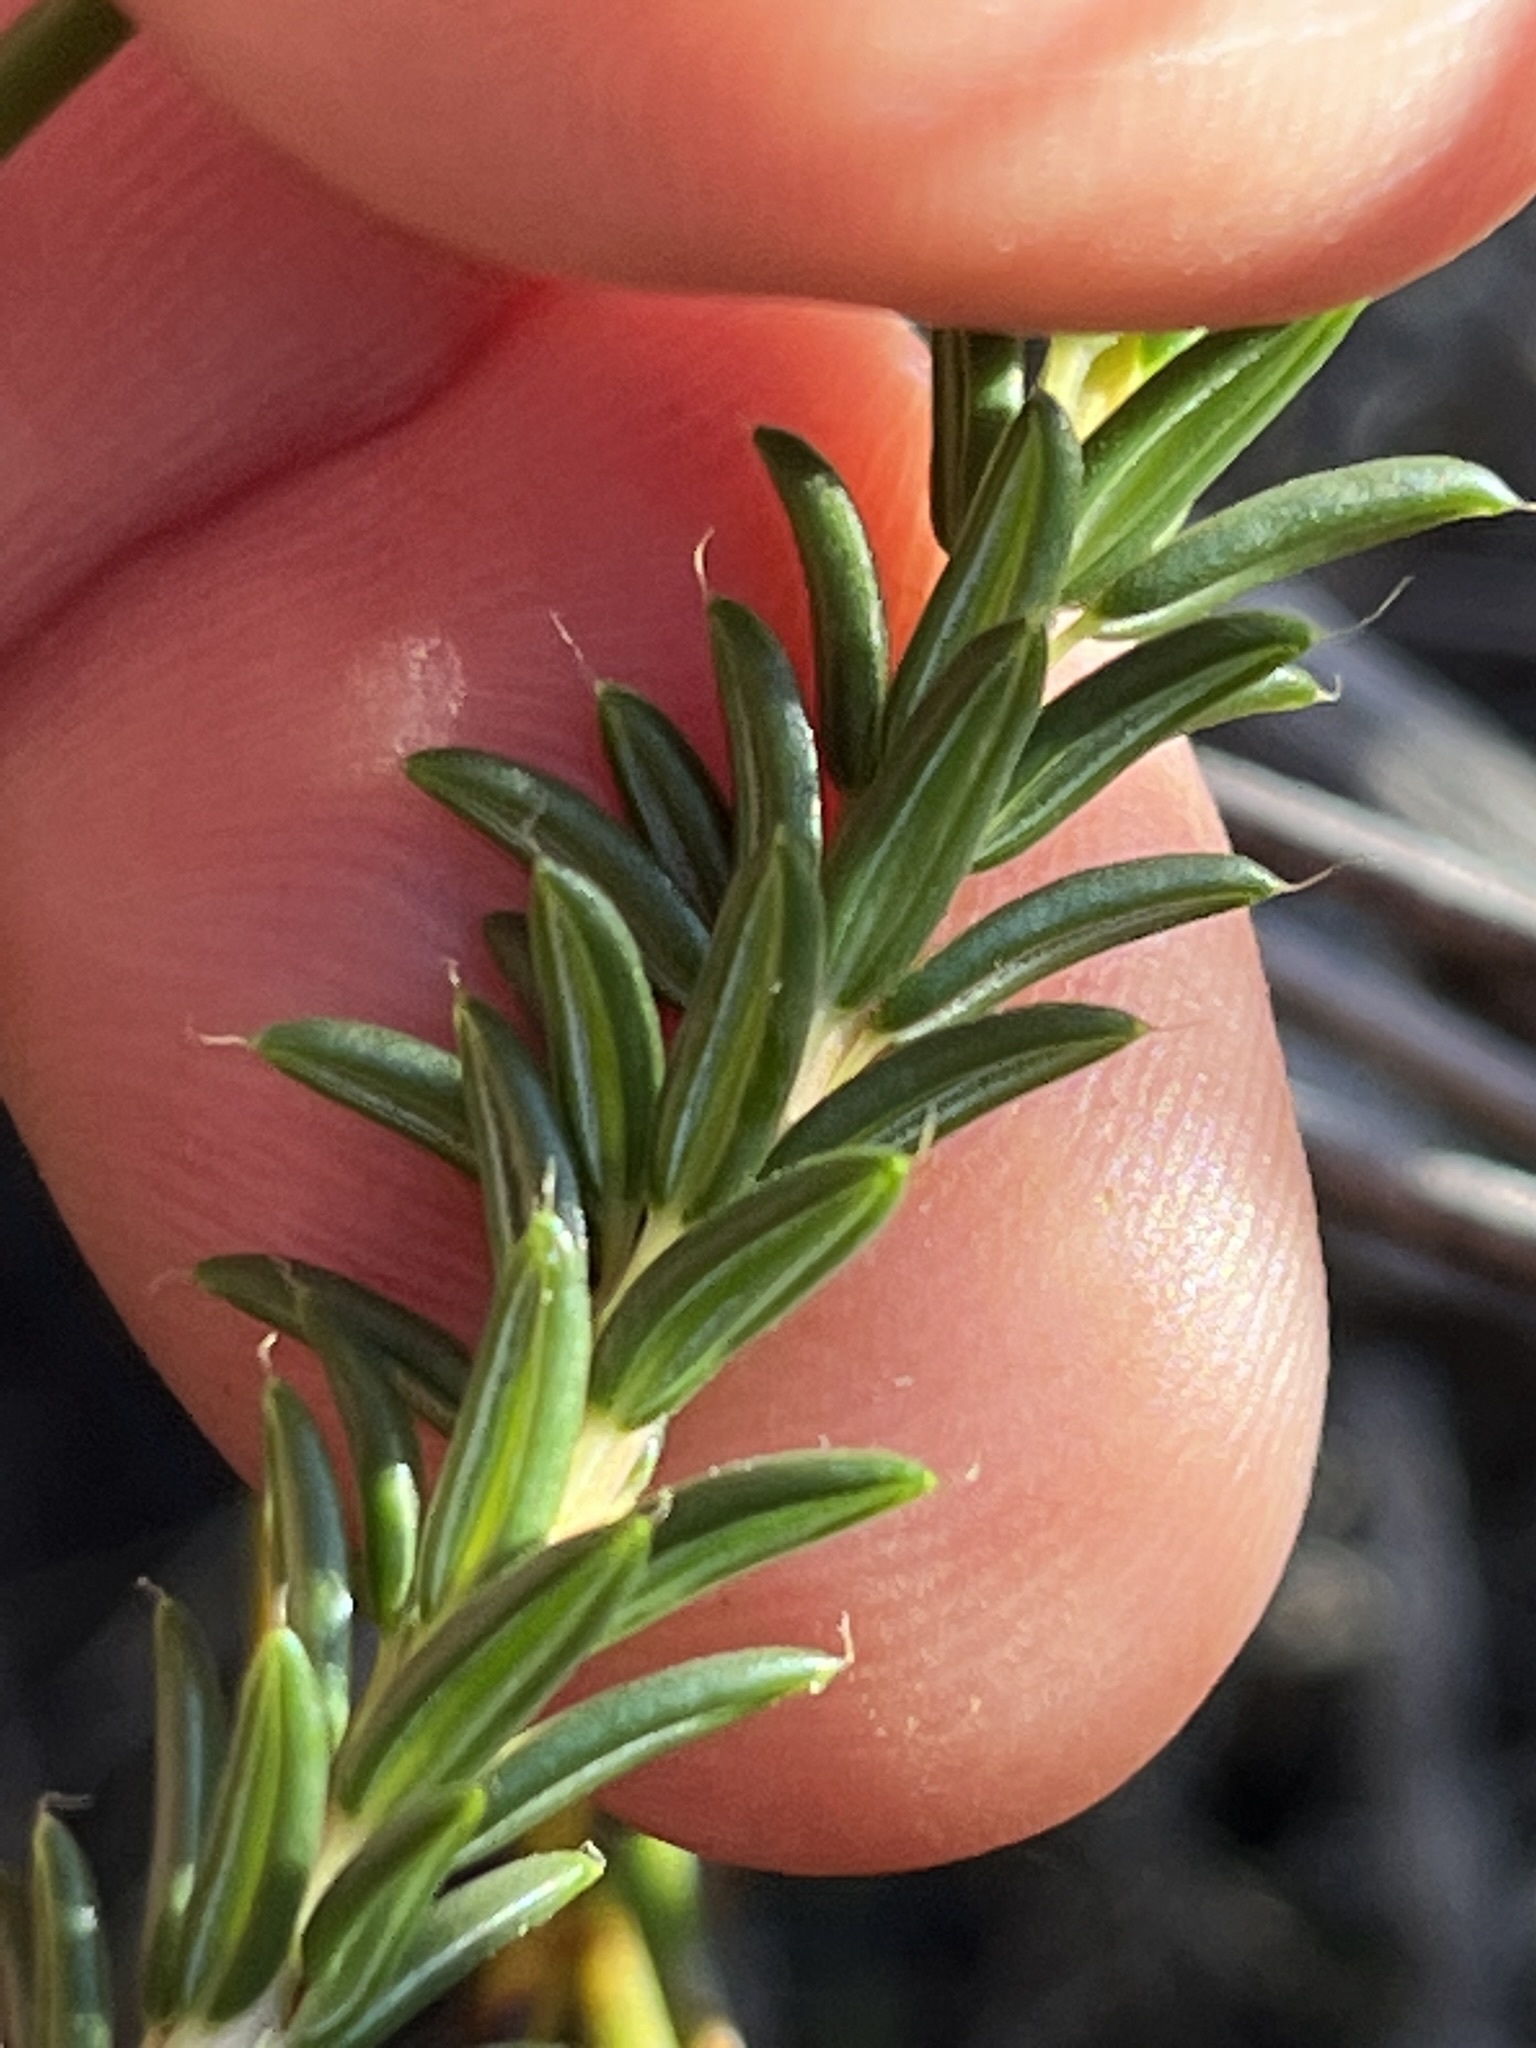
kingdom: Plantae
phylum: Tracheophyta
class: Magnoliopsida
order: Ericales
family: Ericaceae
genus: Erica
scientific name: Erica cerinthoides
